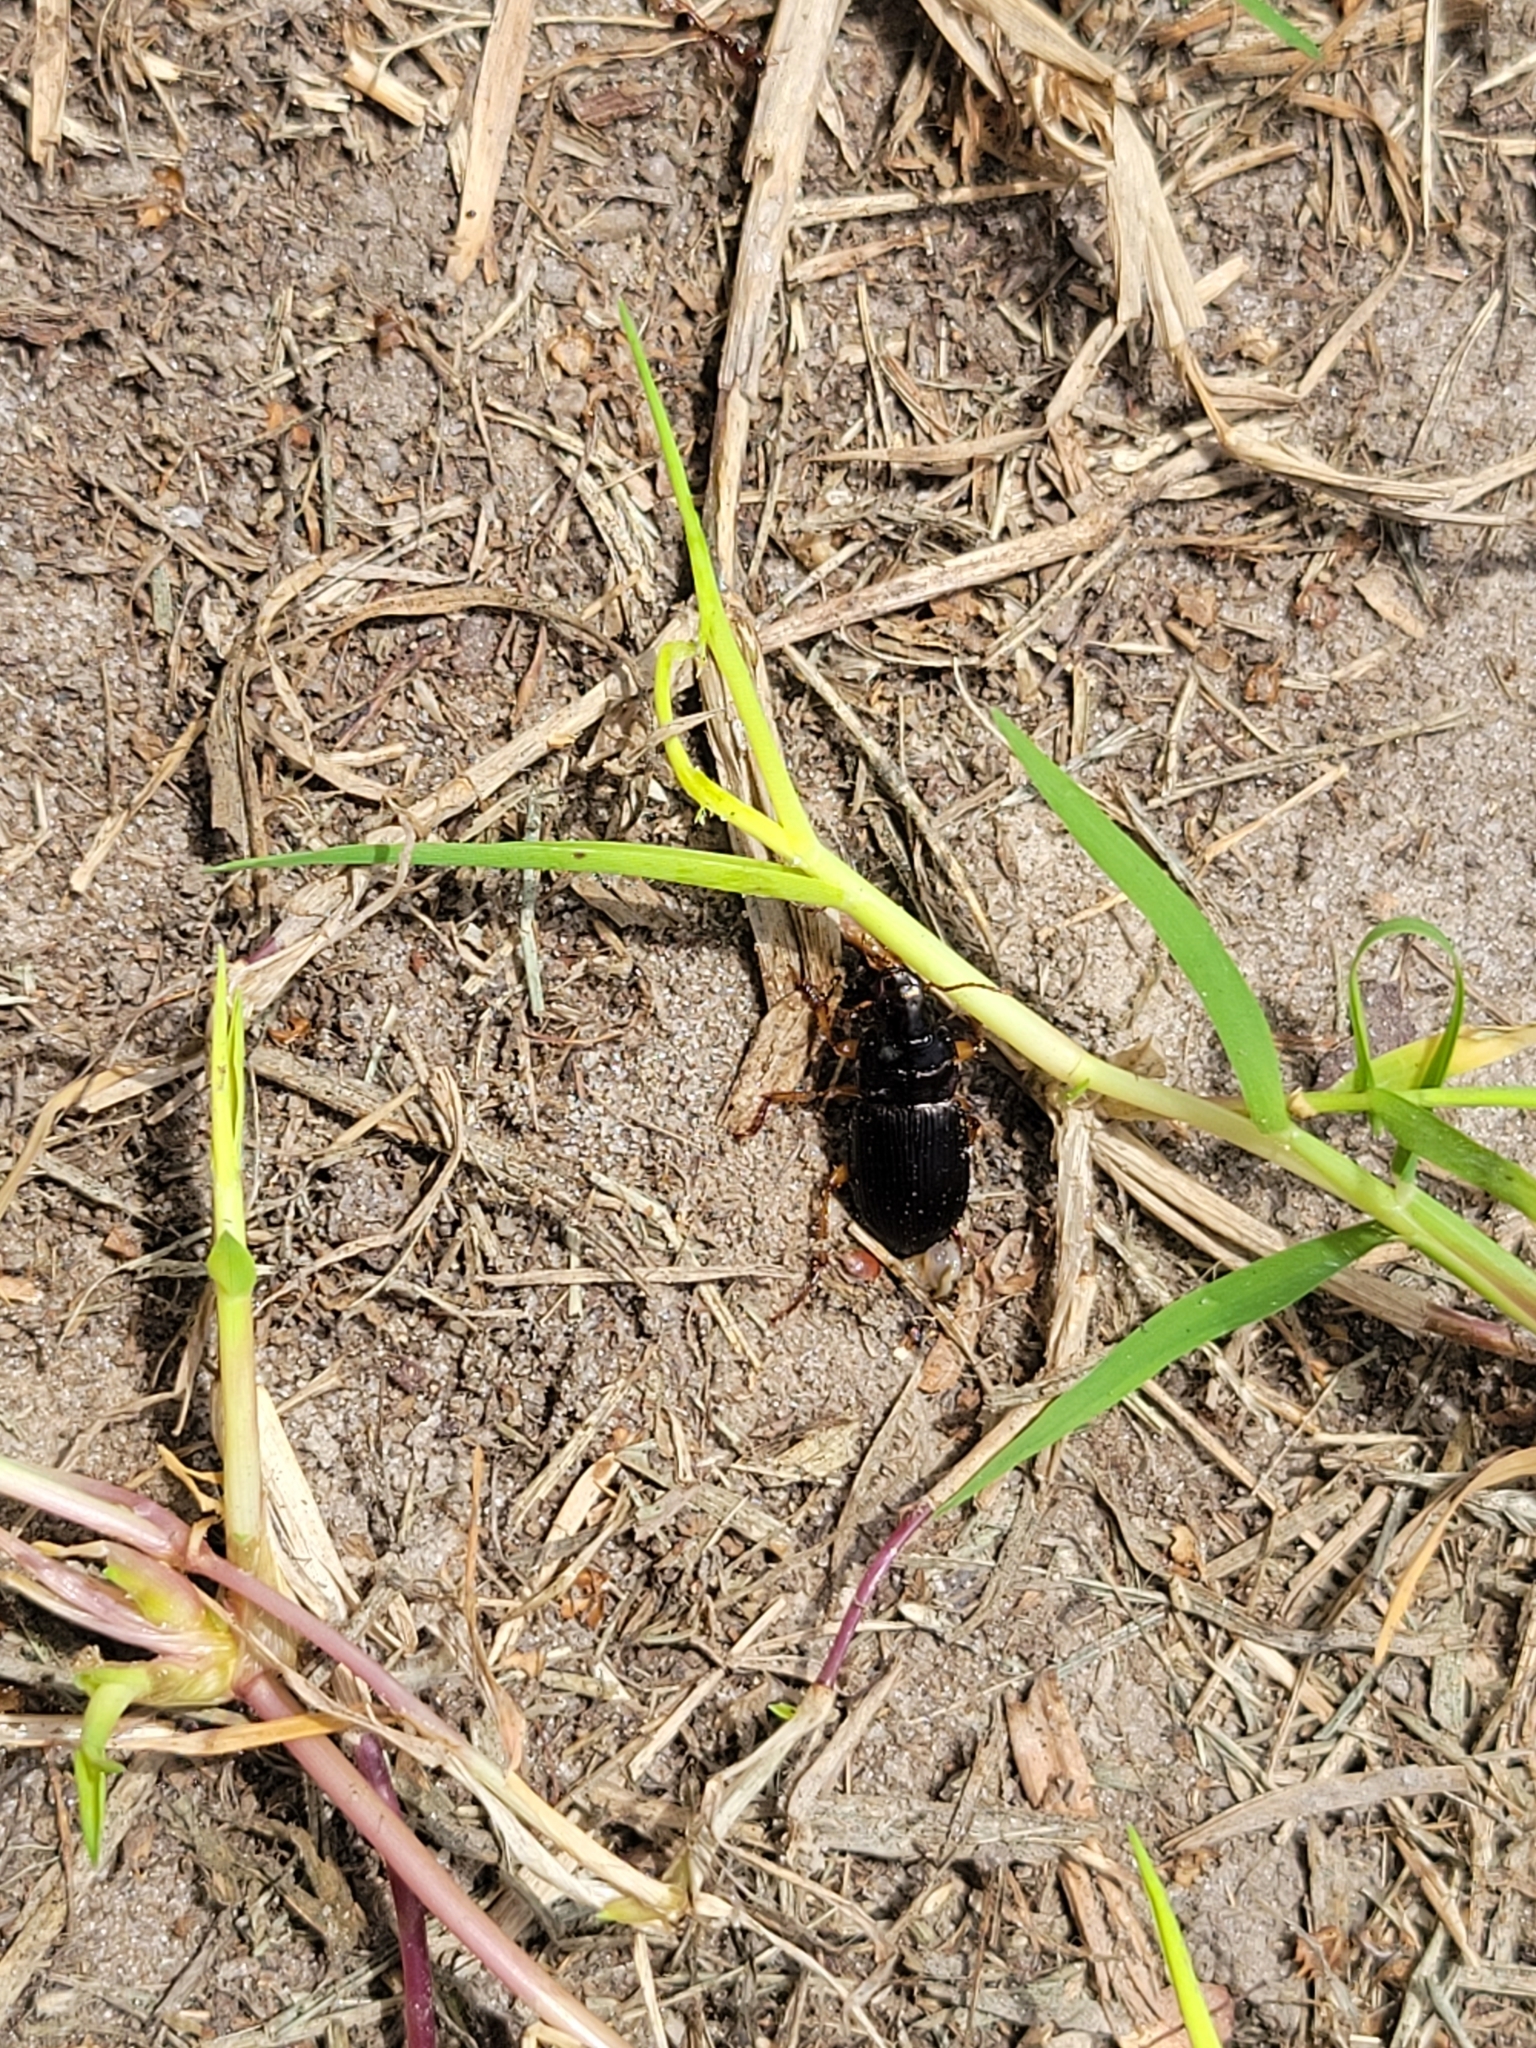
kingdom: Animalia
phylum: Arthropoda
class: Insecta
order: Coleoptera
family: Carabidae
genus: Harpalus
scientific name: Harpalus pensylvanicus
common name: Pennsylvania dingy ground beetle
